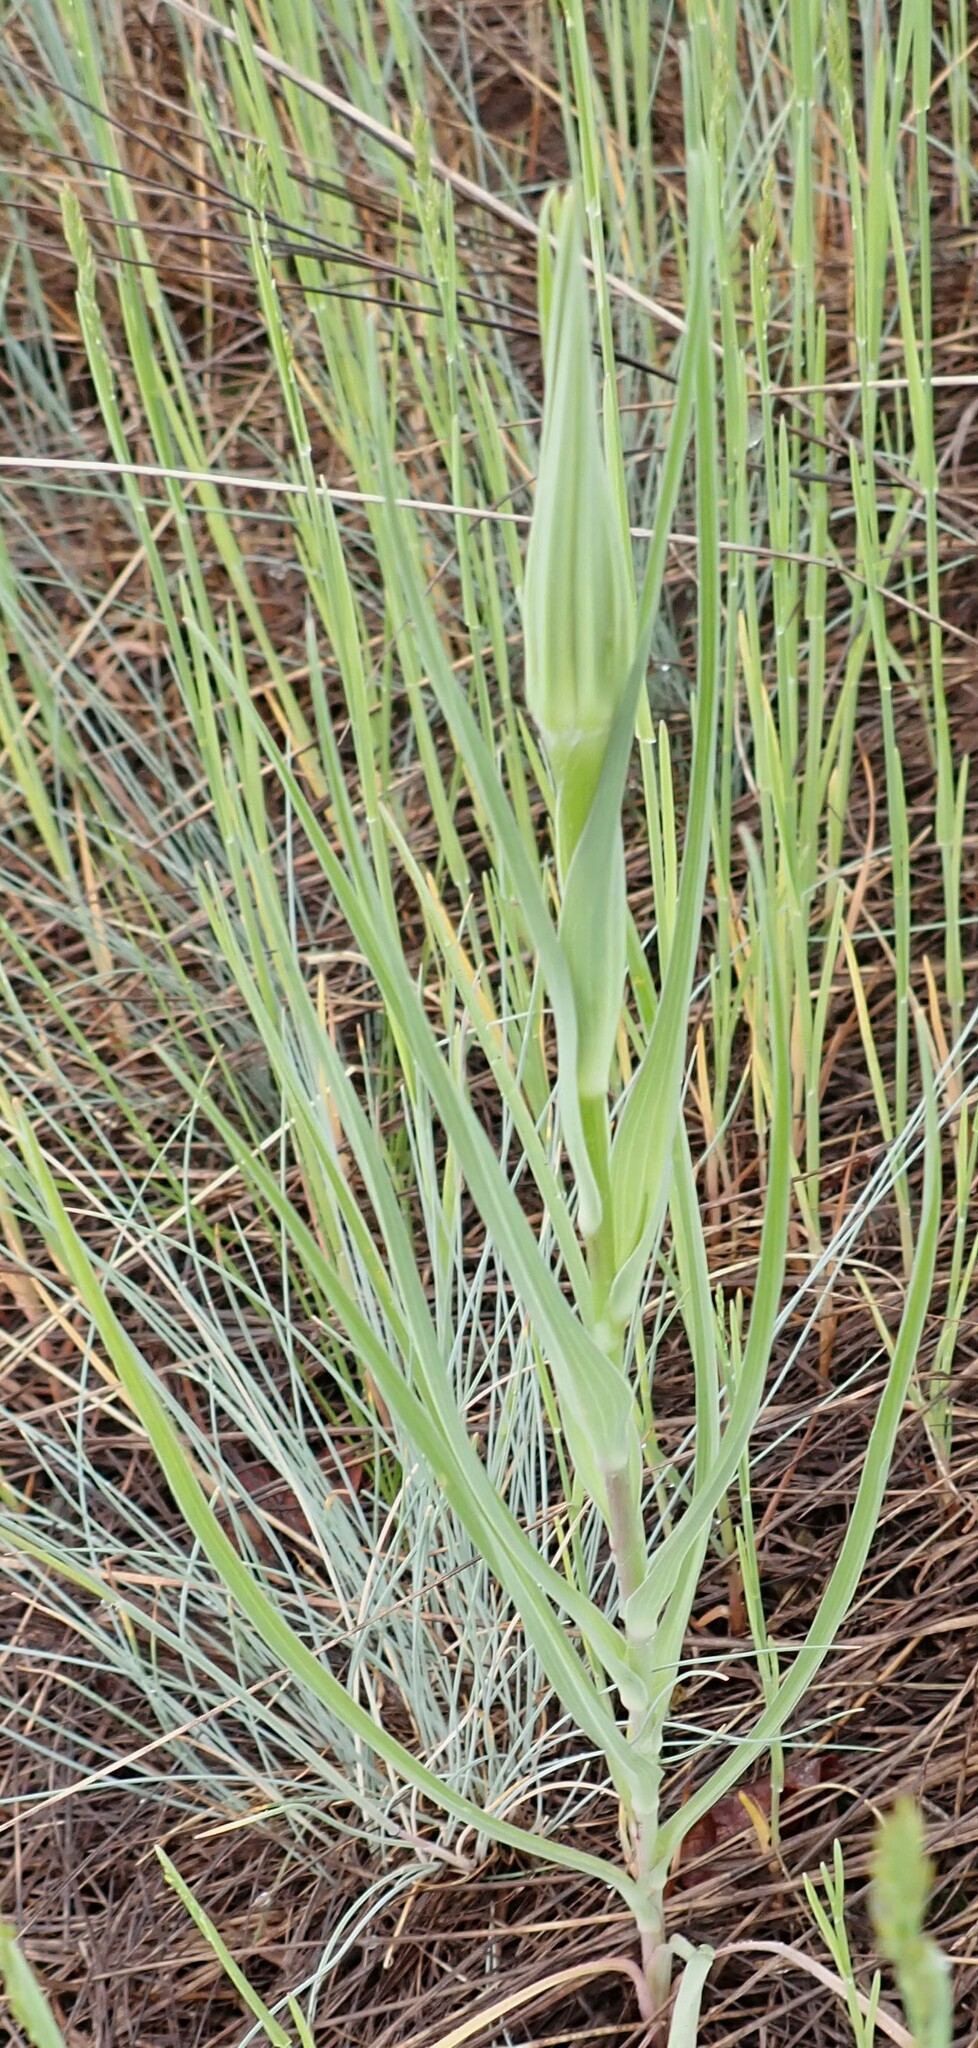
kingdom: Plantae
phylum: Tracheophyta
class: Magnoliopsida
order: Asterales
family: Asteraceae
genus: Tragopogon
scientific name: Tragopogon dubius
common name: Yellow salsify
